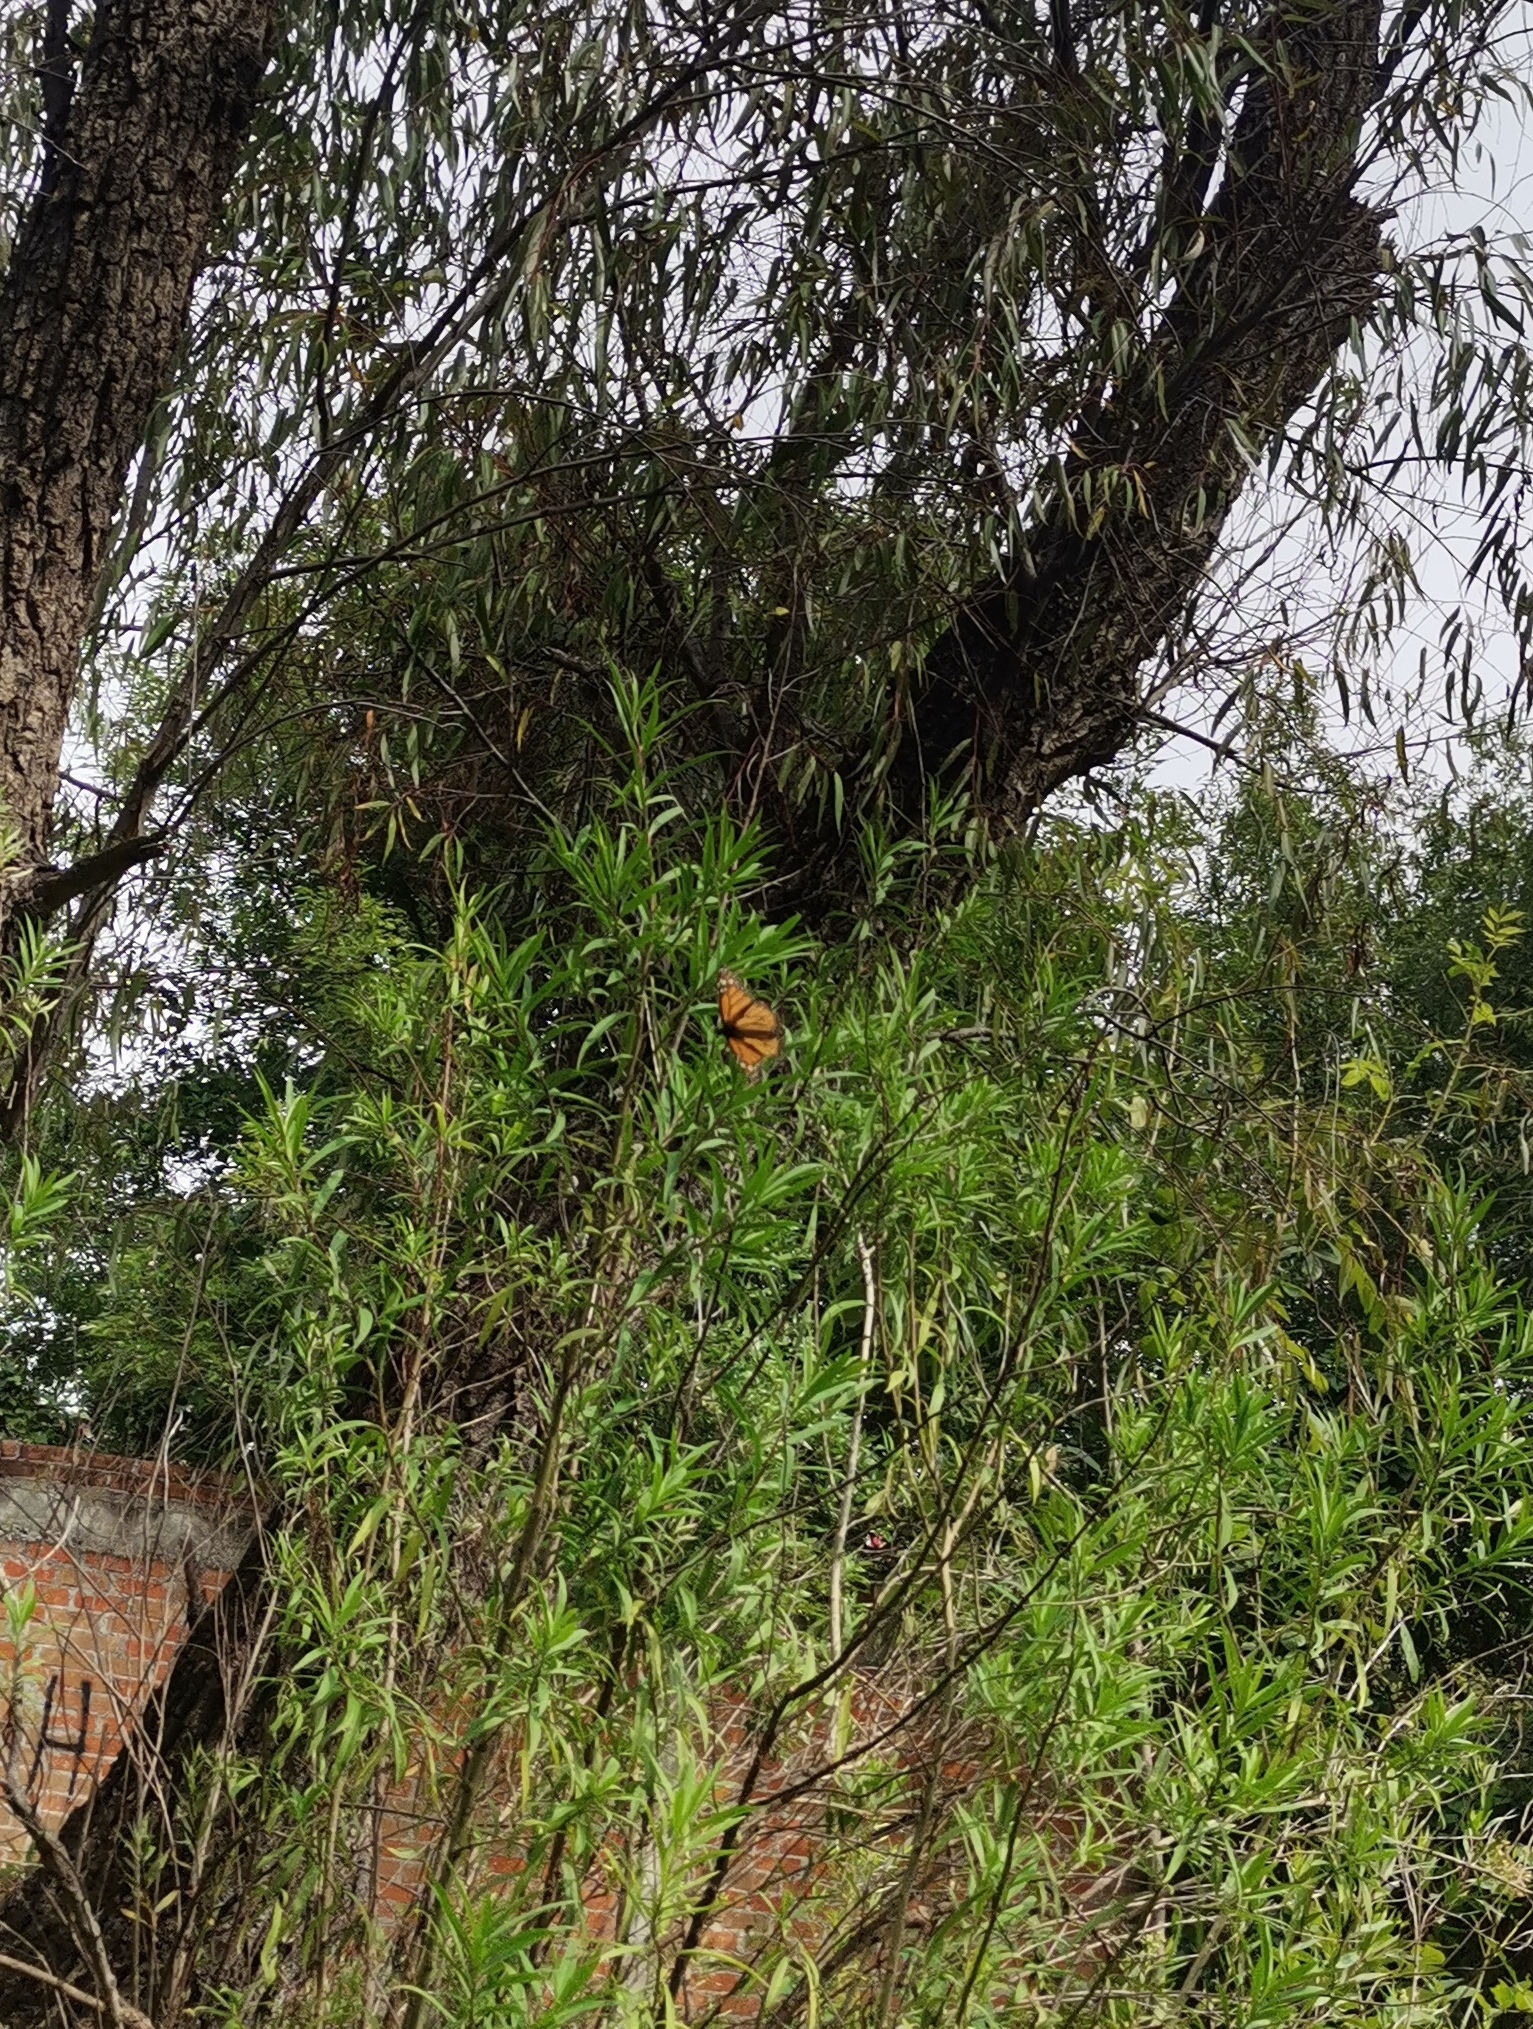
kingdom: Animalia
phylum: Arthropoda
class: Insecta
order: Lepidoptera
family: Nymphalidae
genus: Danaus
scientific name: Danaus plexippus
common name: Monarch
